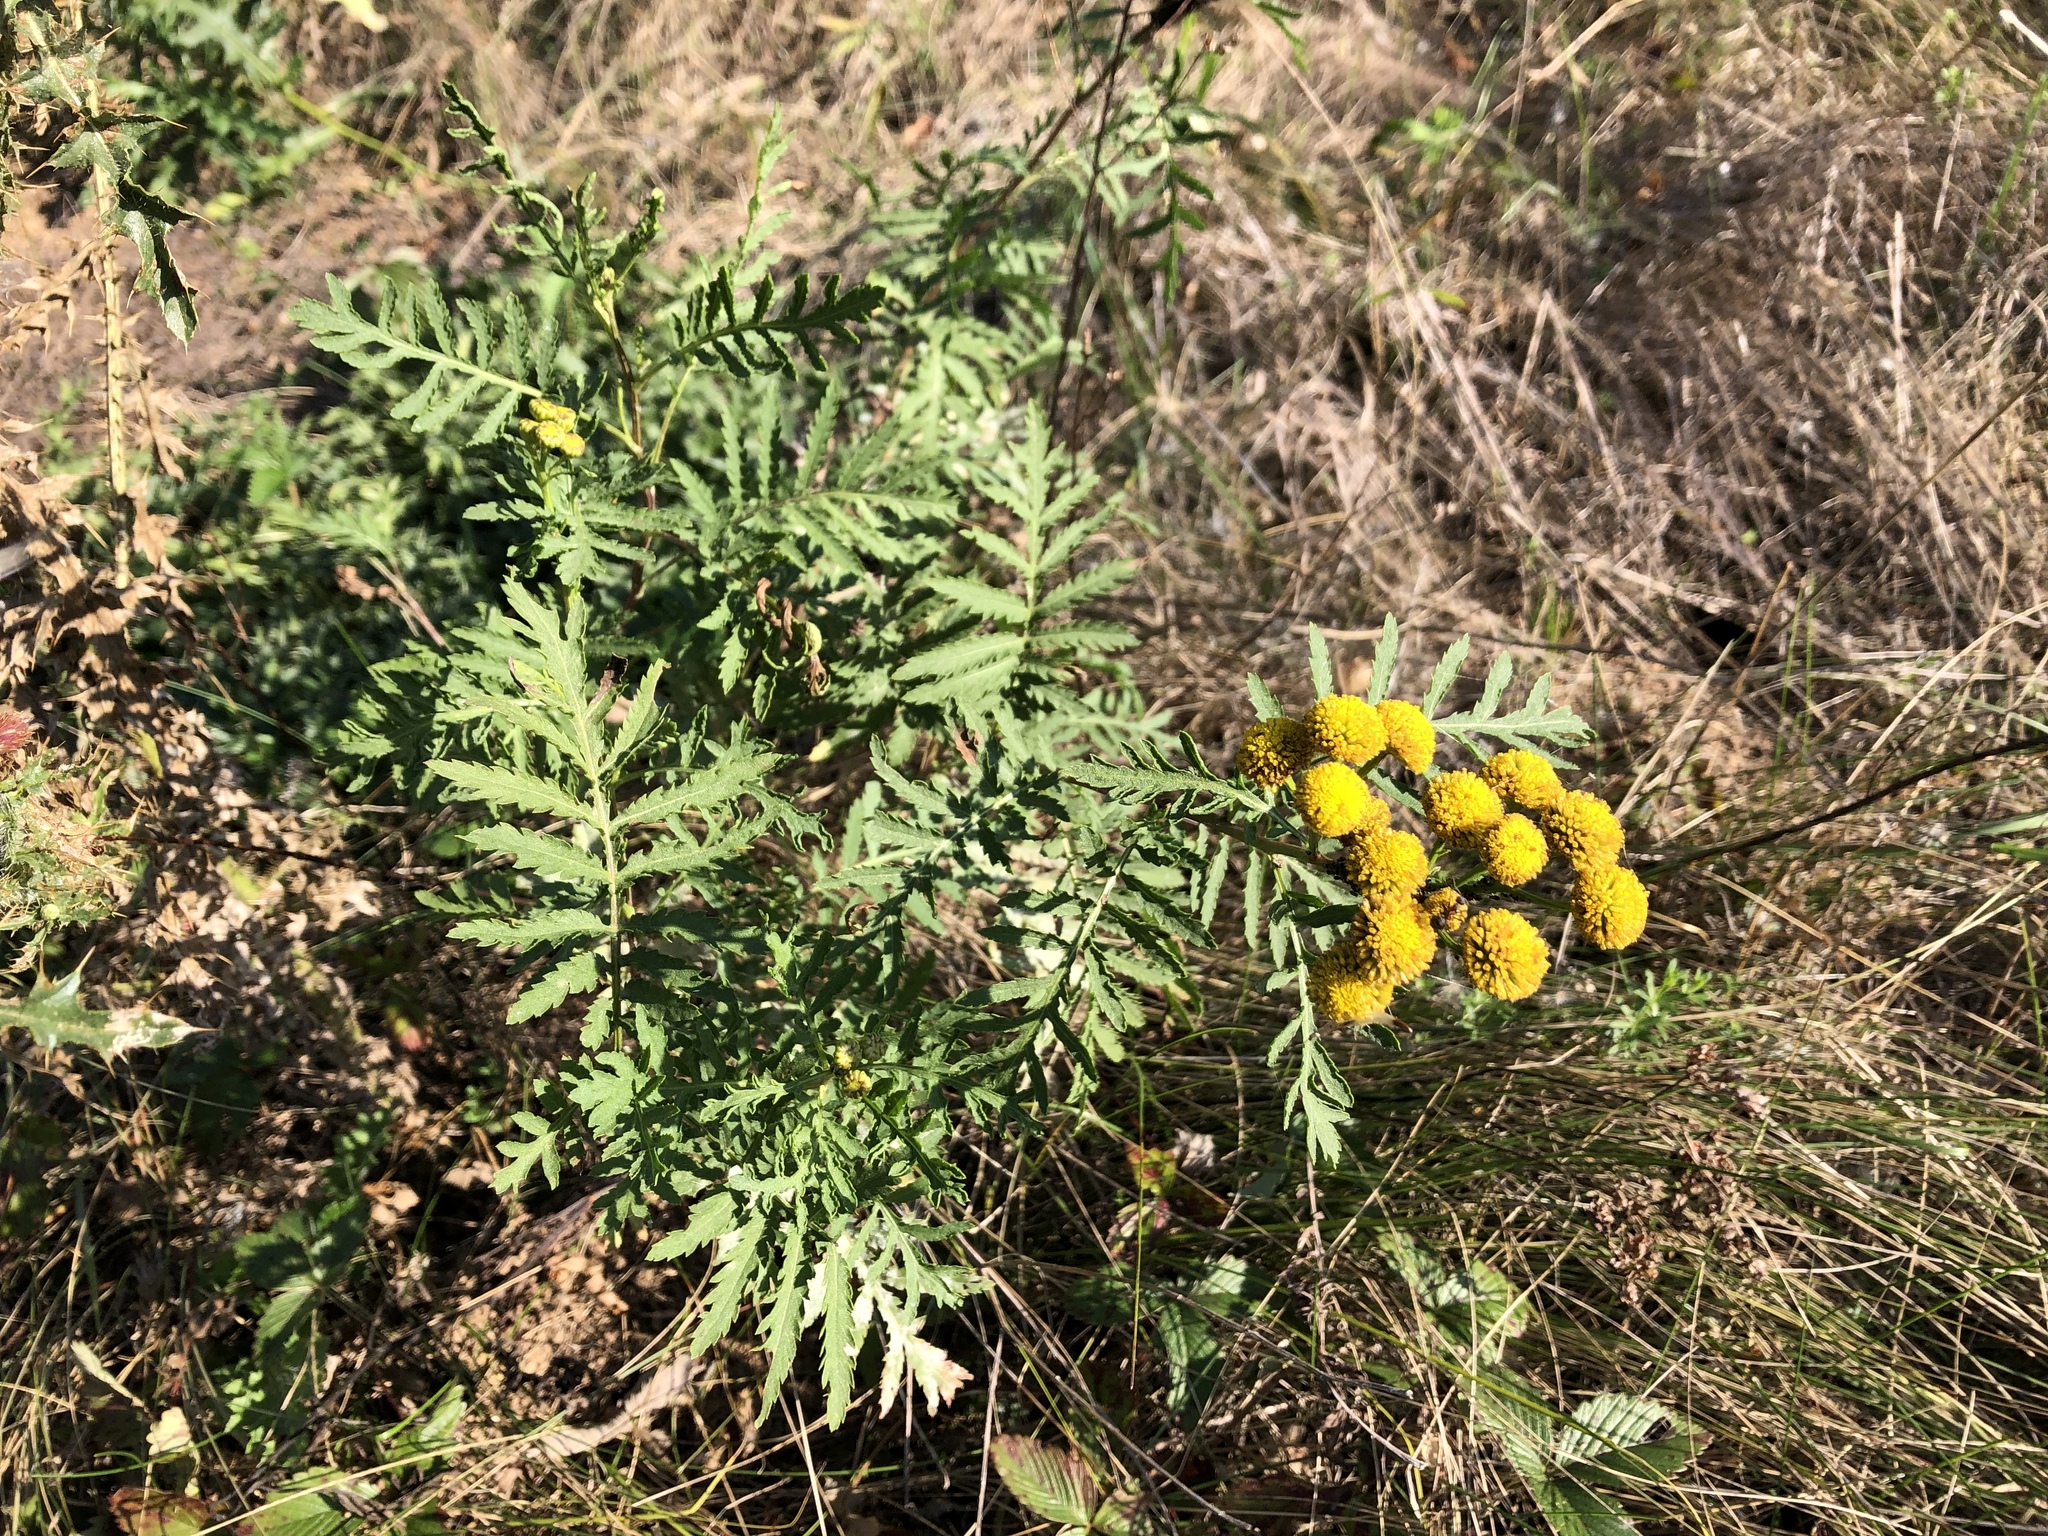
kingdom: Plantae
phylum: Tracheophyta
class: Magnoliopsida
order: Asterales
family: Asteraceae
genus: Tanacetum
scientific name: Tanacetum vulgare
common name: Common tansy
